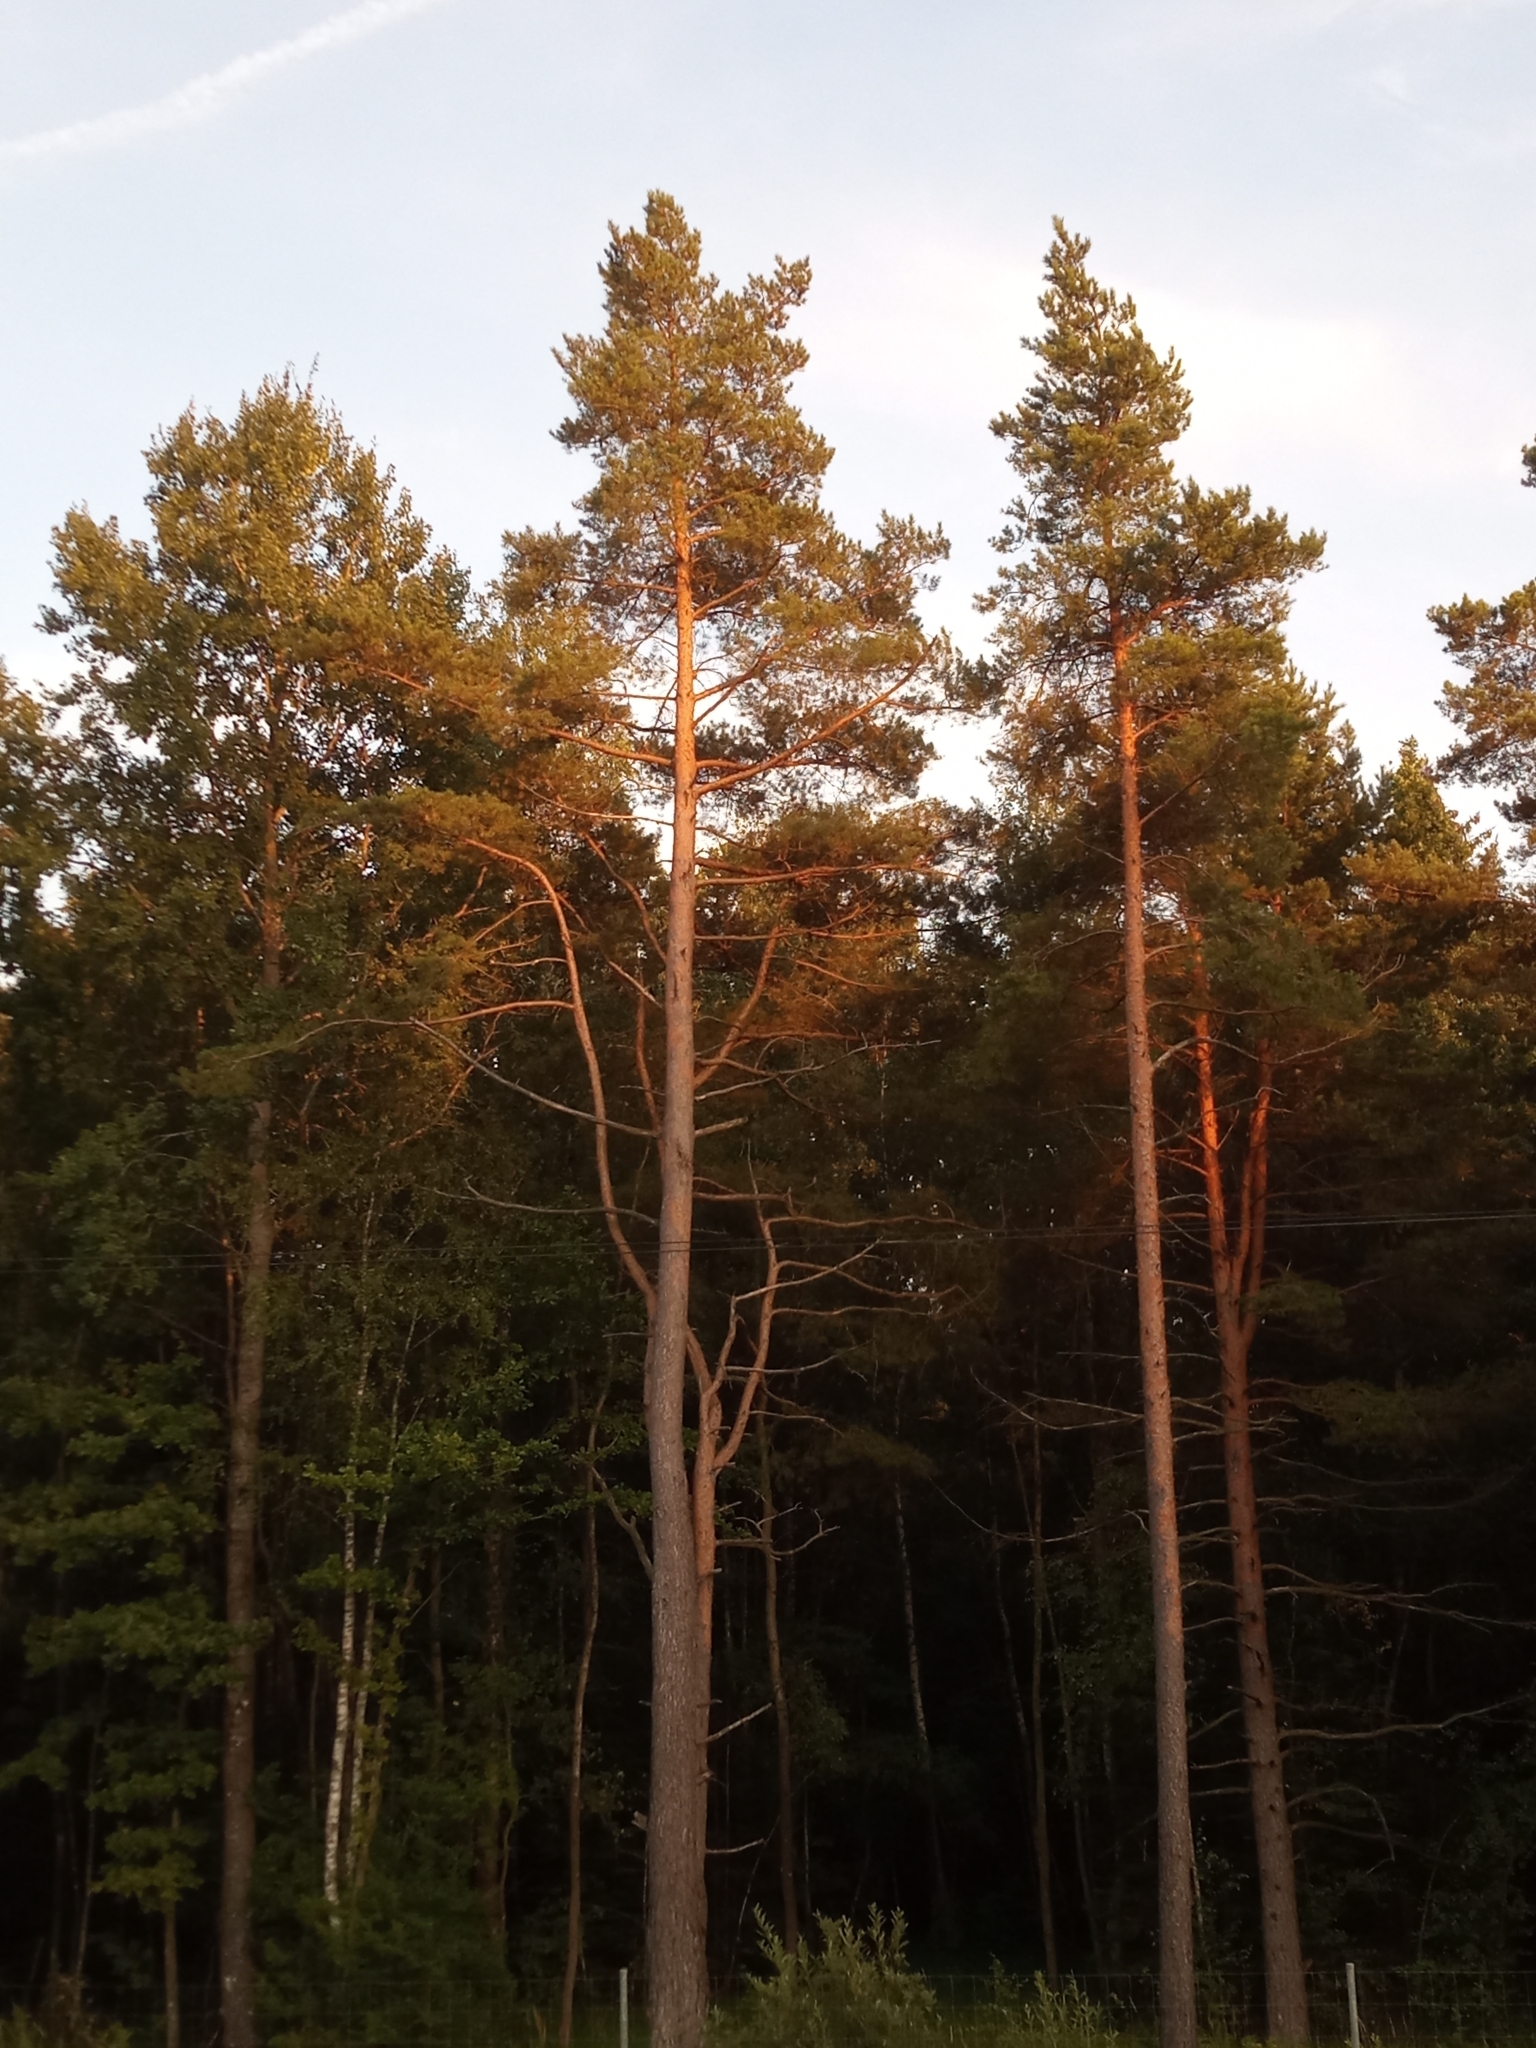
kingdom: Plantae
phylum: Tracheophyta
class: Pinopsida
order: Pinales
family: Pinaceae
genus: Pinus
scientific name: Pinus sylvestris
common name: Scots pine
